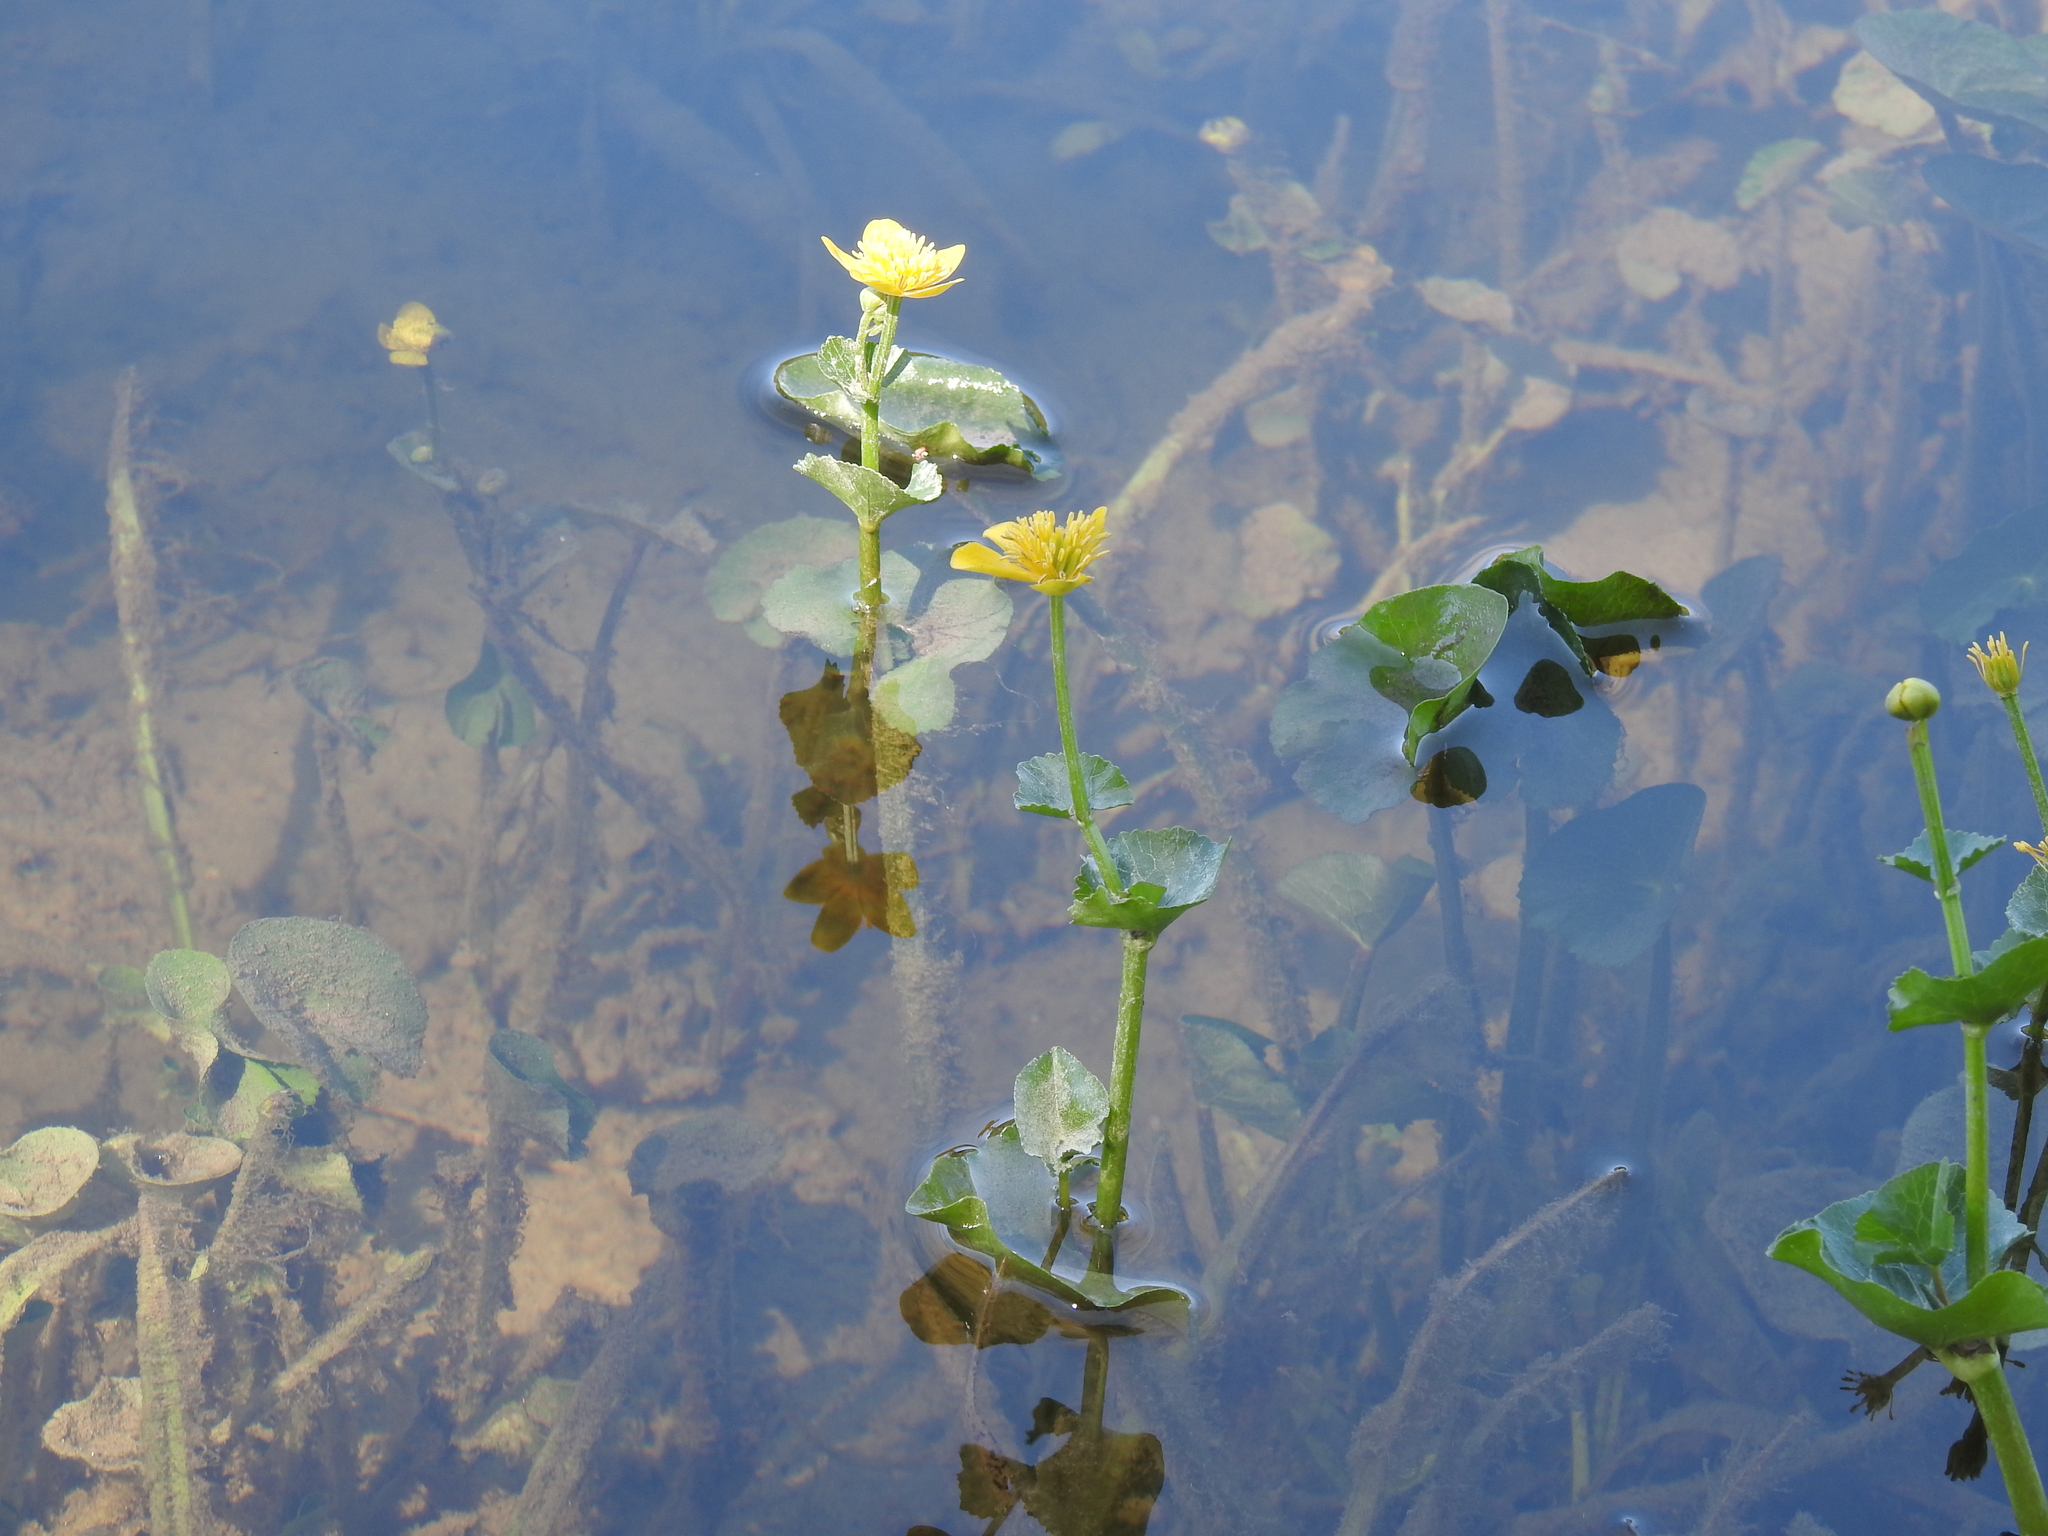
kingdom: Plantae
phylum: Tracheophyta
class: Magnoliopsida
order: Ranunculales
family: Ranunculaceae
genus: Caltha
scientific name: Caltha palustris
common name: Marsh marigold
